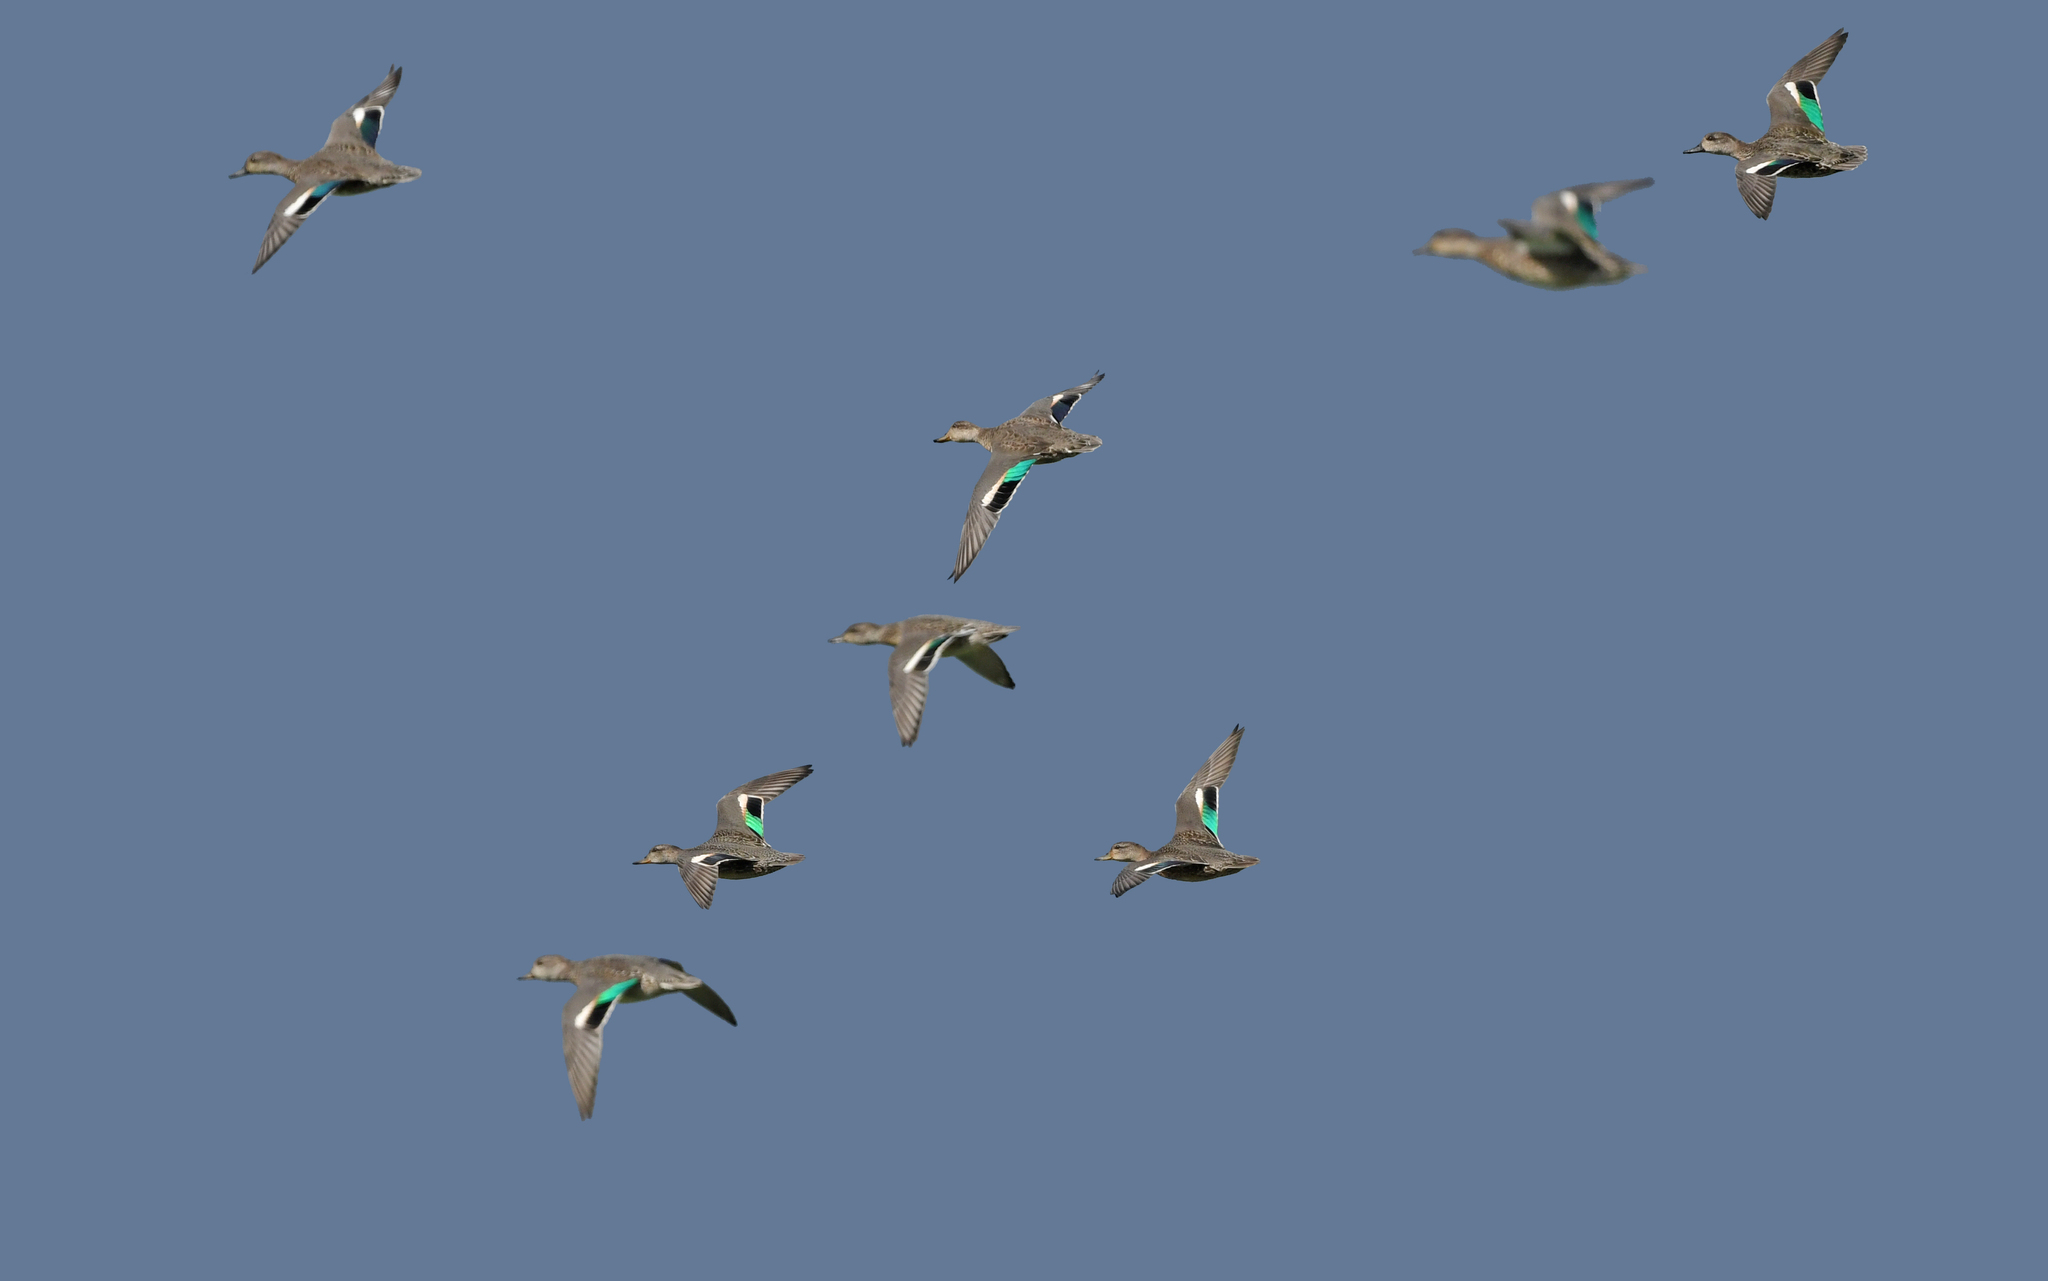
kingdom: Animalia
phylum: Chordata
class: Aves
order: Anseriformes
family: Anatidae
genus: Anas
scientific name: Anas crecca
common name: Eurasian teal
